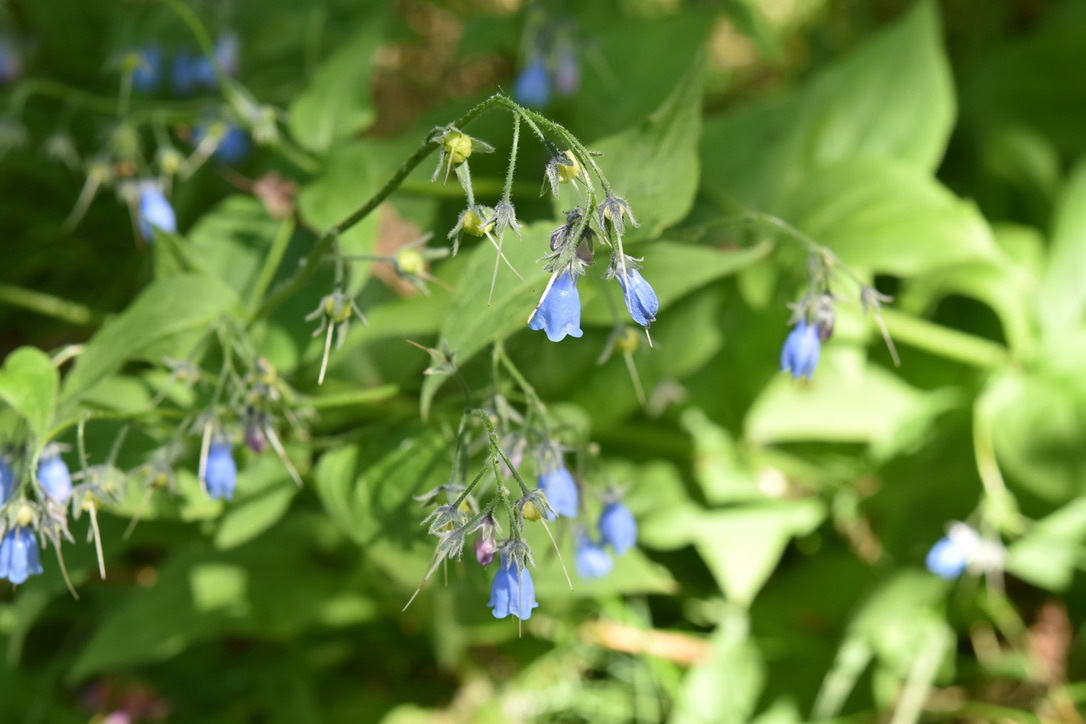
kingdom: Plantae
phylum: Tracheophyta
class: Magnoliopsida
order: Boraginales
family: Boraginaceae
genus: Mertensia
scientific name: Mertensia paniculata
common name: Panicled bluebells
